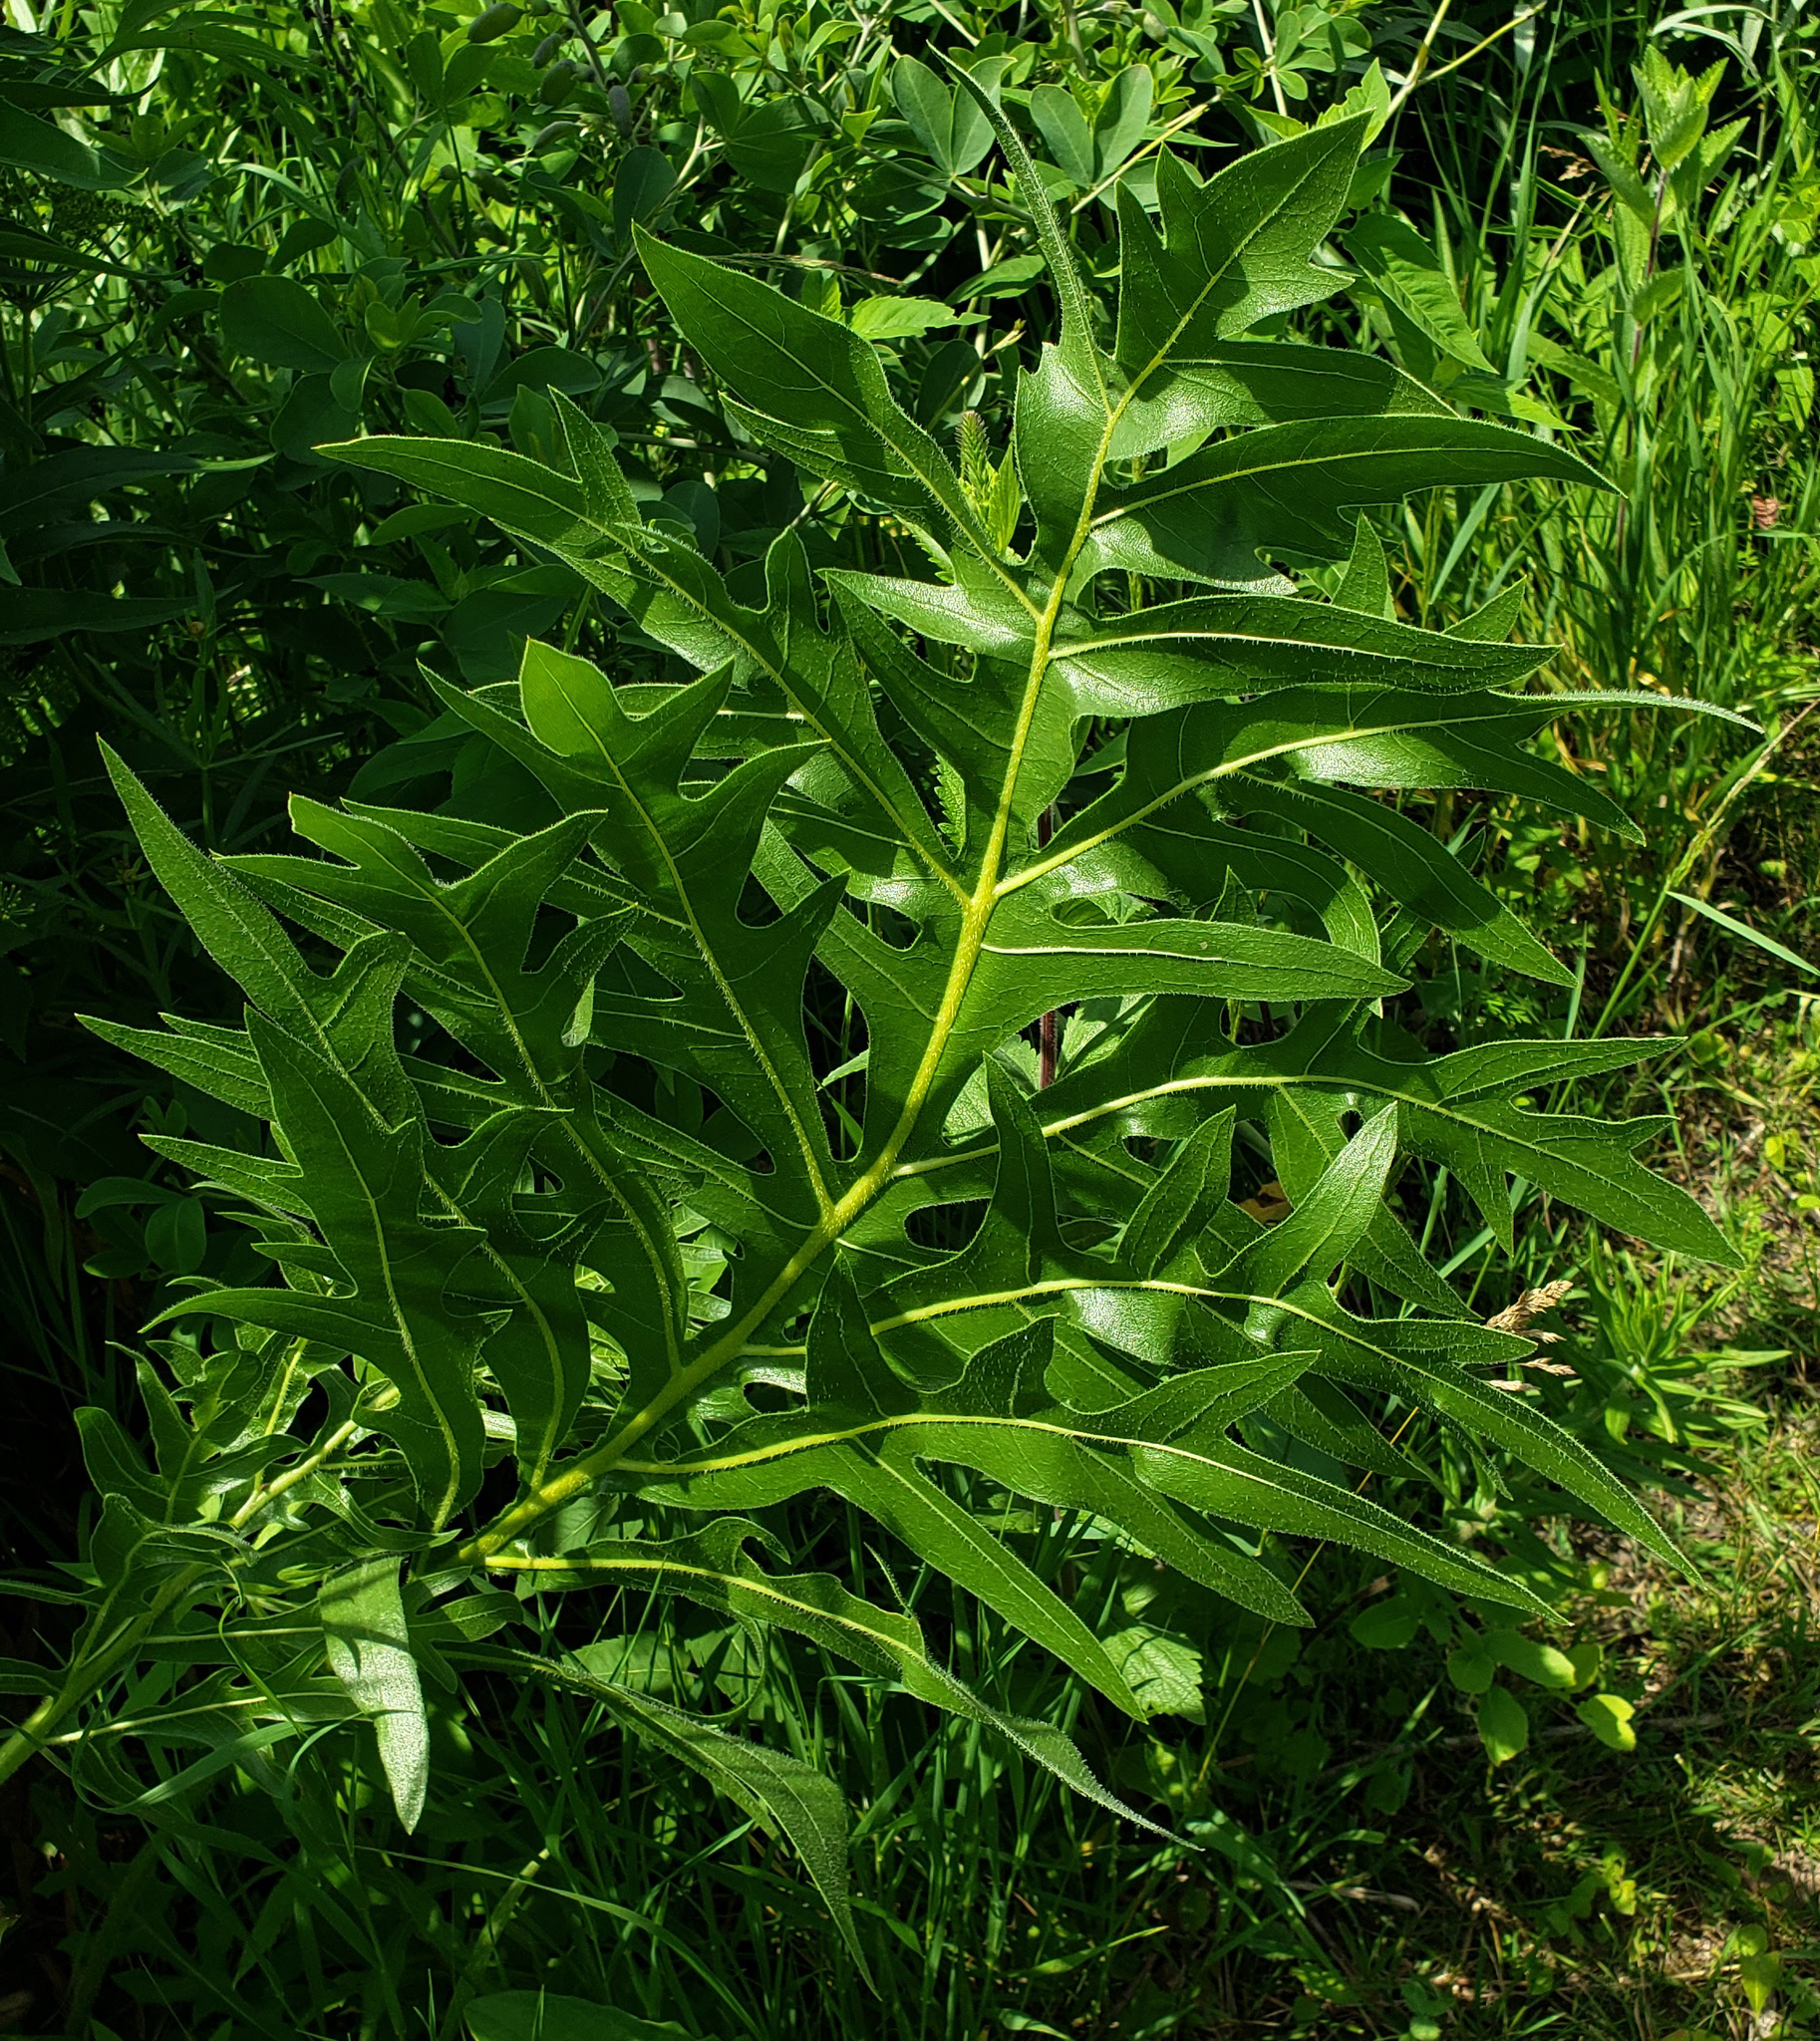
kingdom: Plantae
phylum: Tracheophyta
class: Magnoliopsida
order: Asterales
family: Asteraceae
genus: Silphium
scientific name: Silphium laciniatum
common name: Polarplant
